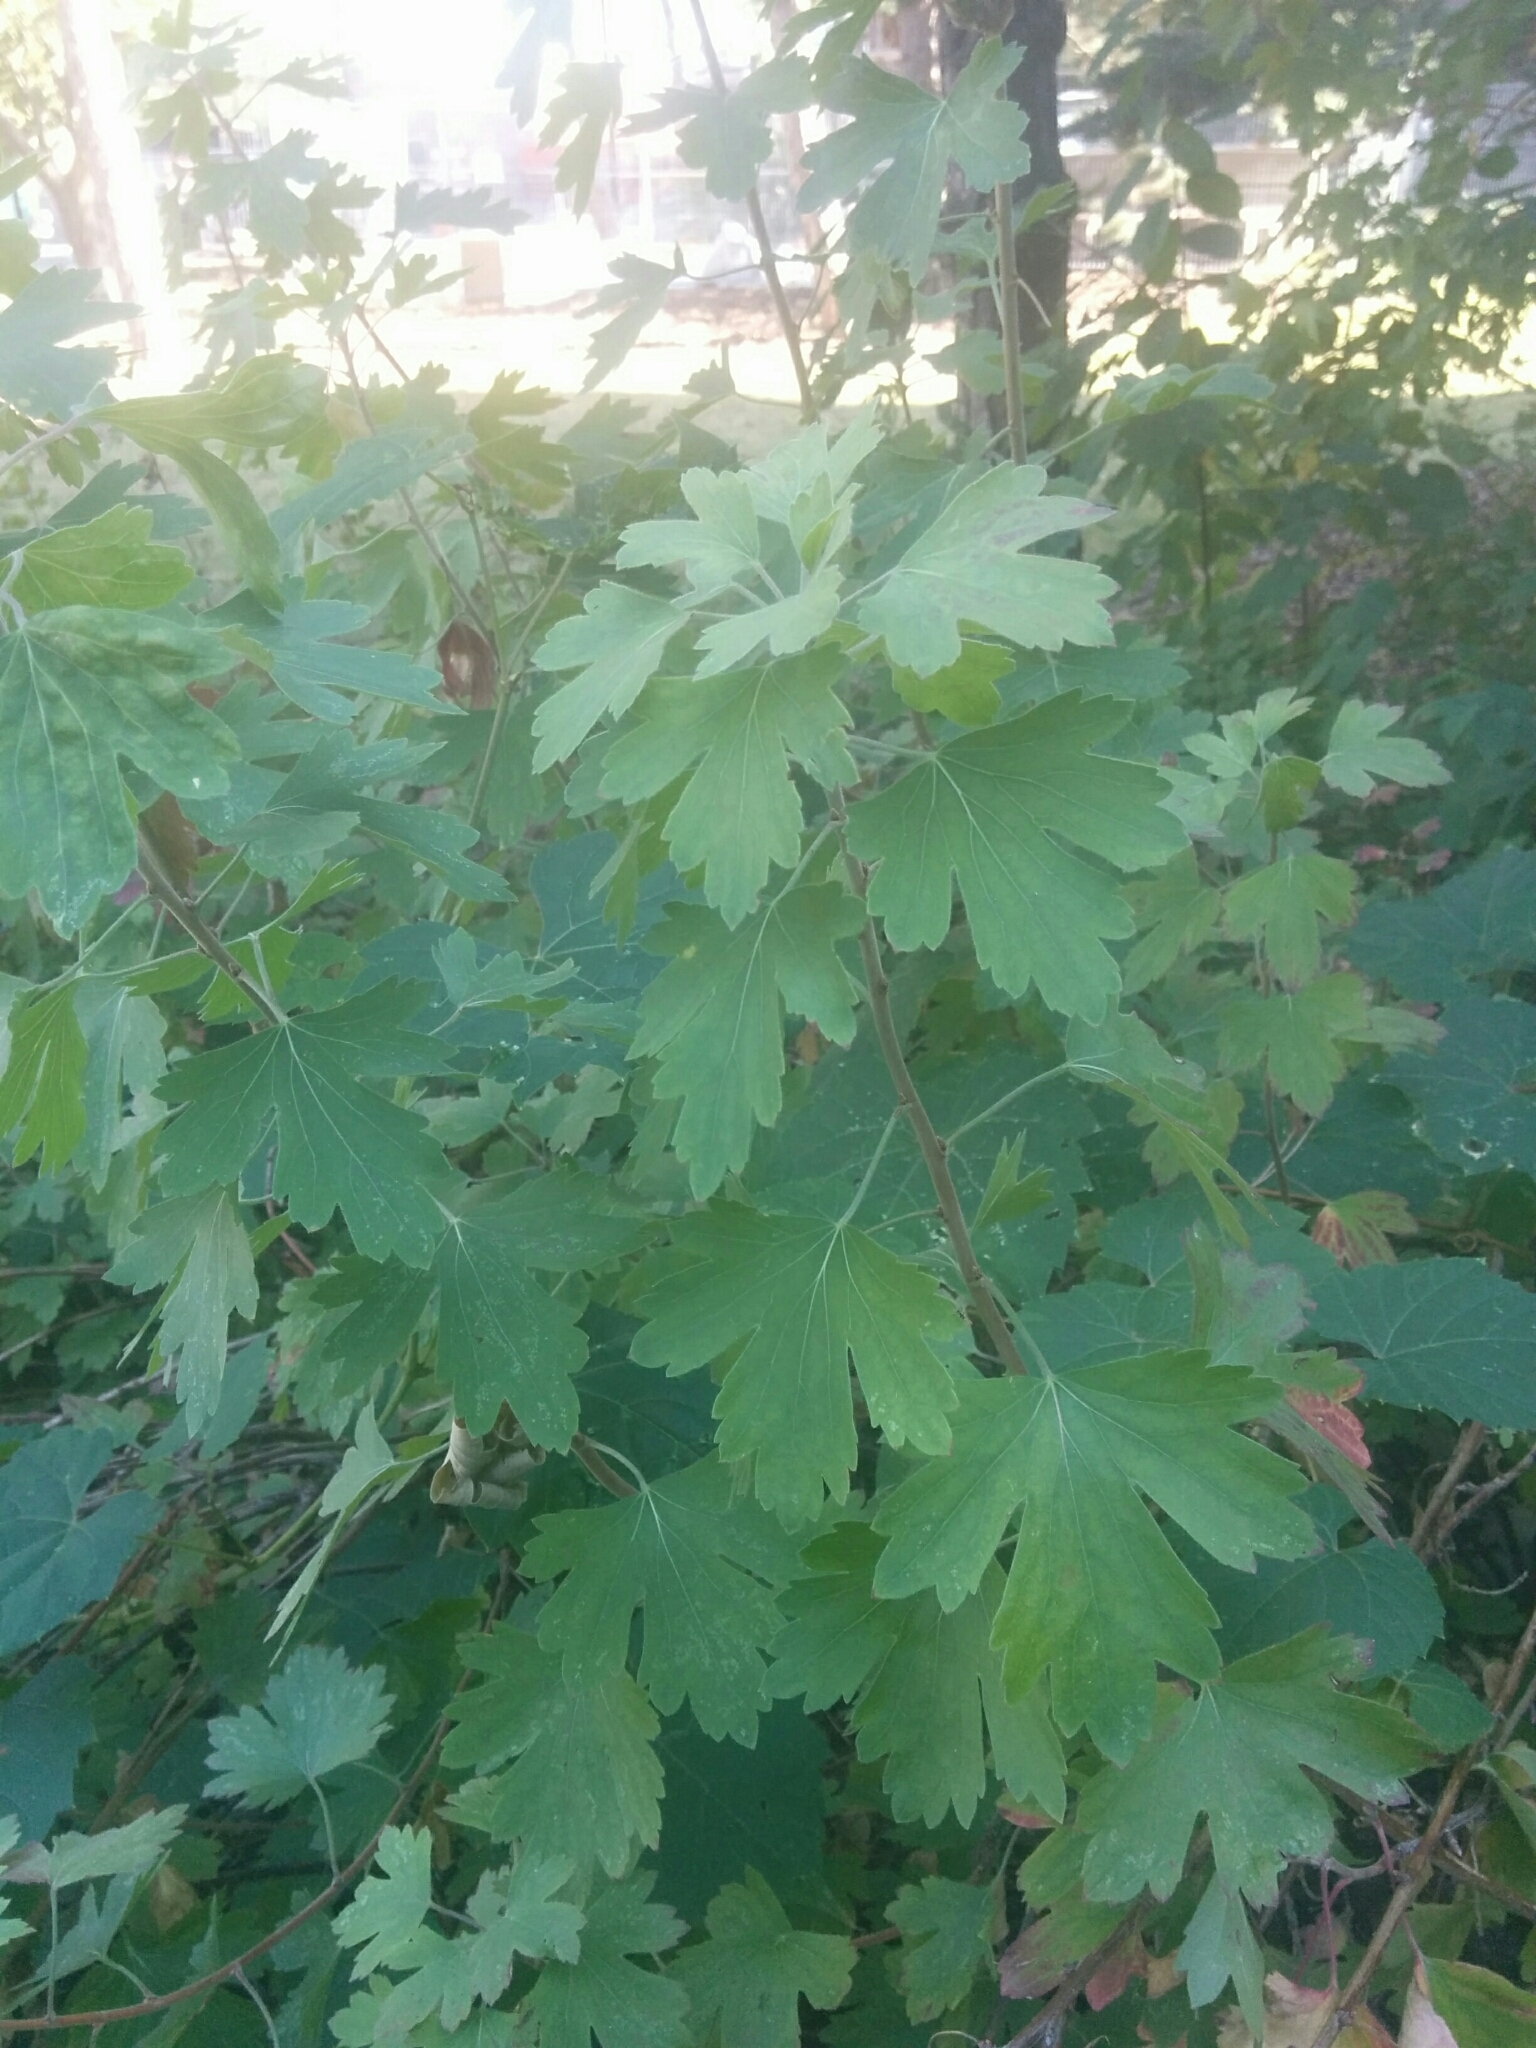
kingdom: Plantae
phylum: Tracheophyta
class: Magnoliopsida
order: Saxifragales
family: Grossulariaceae
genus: Ribes
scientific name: Ribes aureum
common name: Golden currant
